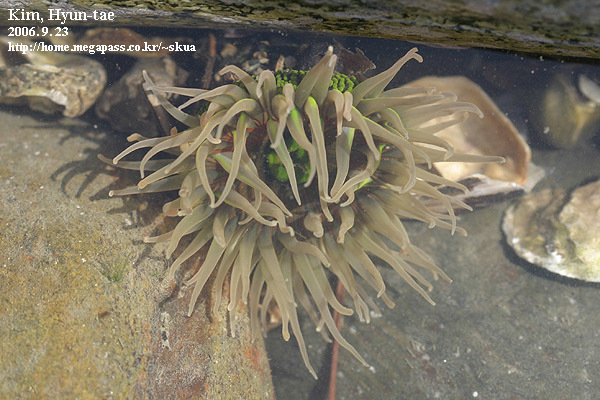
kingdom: Animalia
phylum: Cnidaria
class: Anthozoa
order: Actiniaria
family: Actiniidae
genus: Anthopleura
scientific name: Anthopleura fuscoviridis
